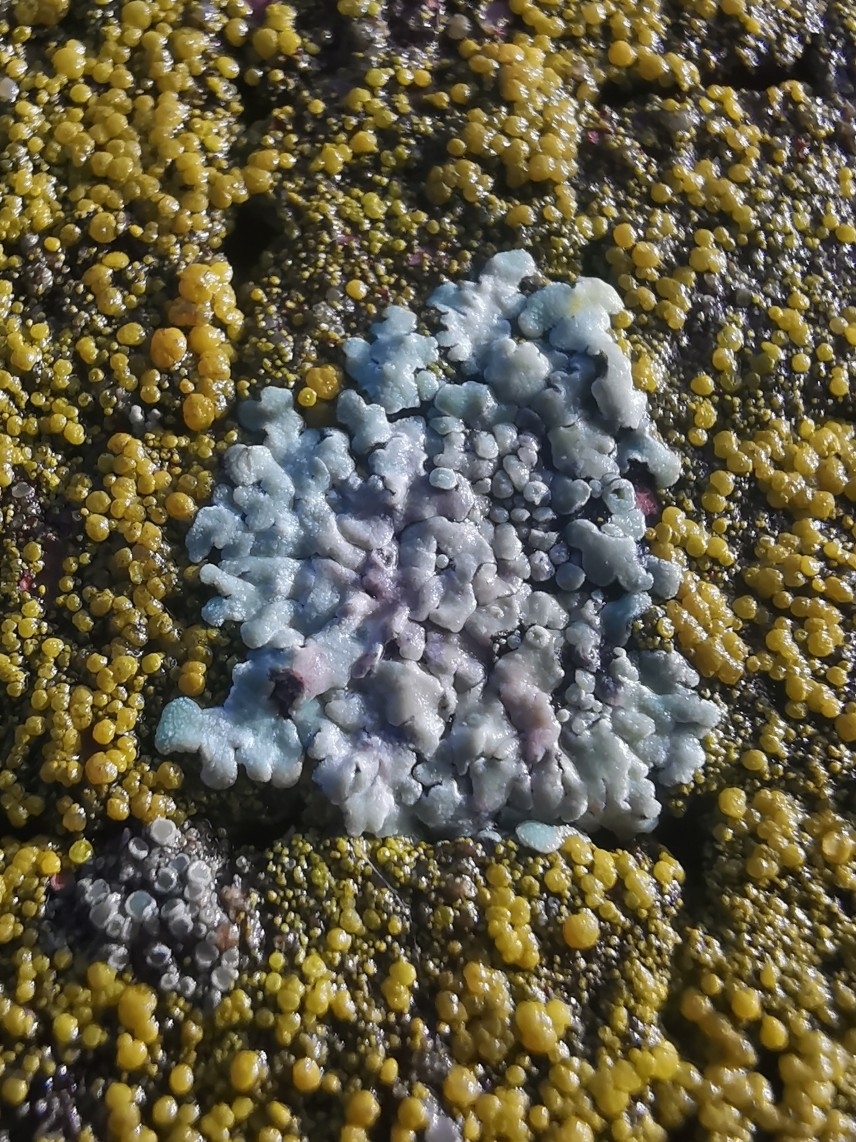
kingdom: Fungi
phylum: Ascomycota
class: Lecanoromycetes
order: Lecanorales
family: Lecanoraceae
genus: Protoparmeliopsis
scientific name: Protoparmeliopsis muralis
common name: Stonewall rim lichen
